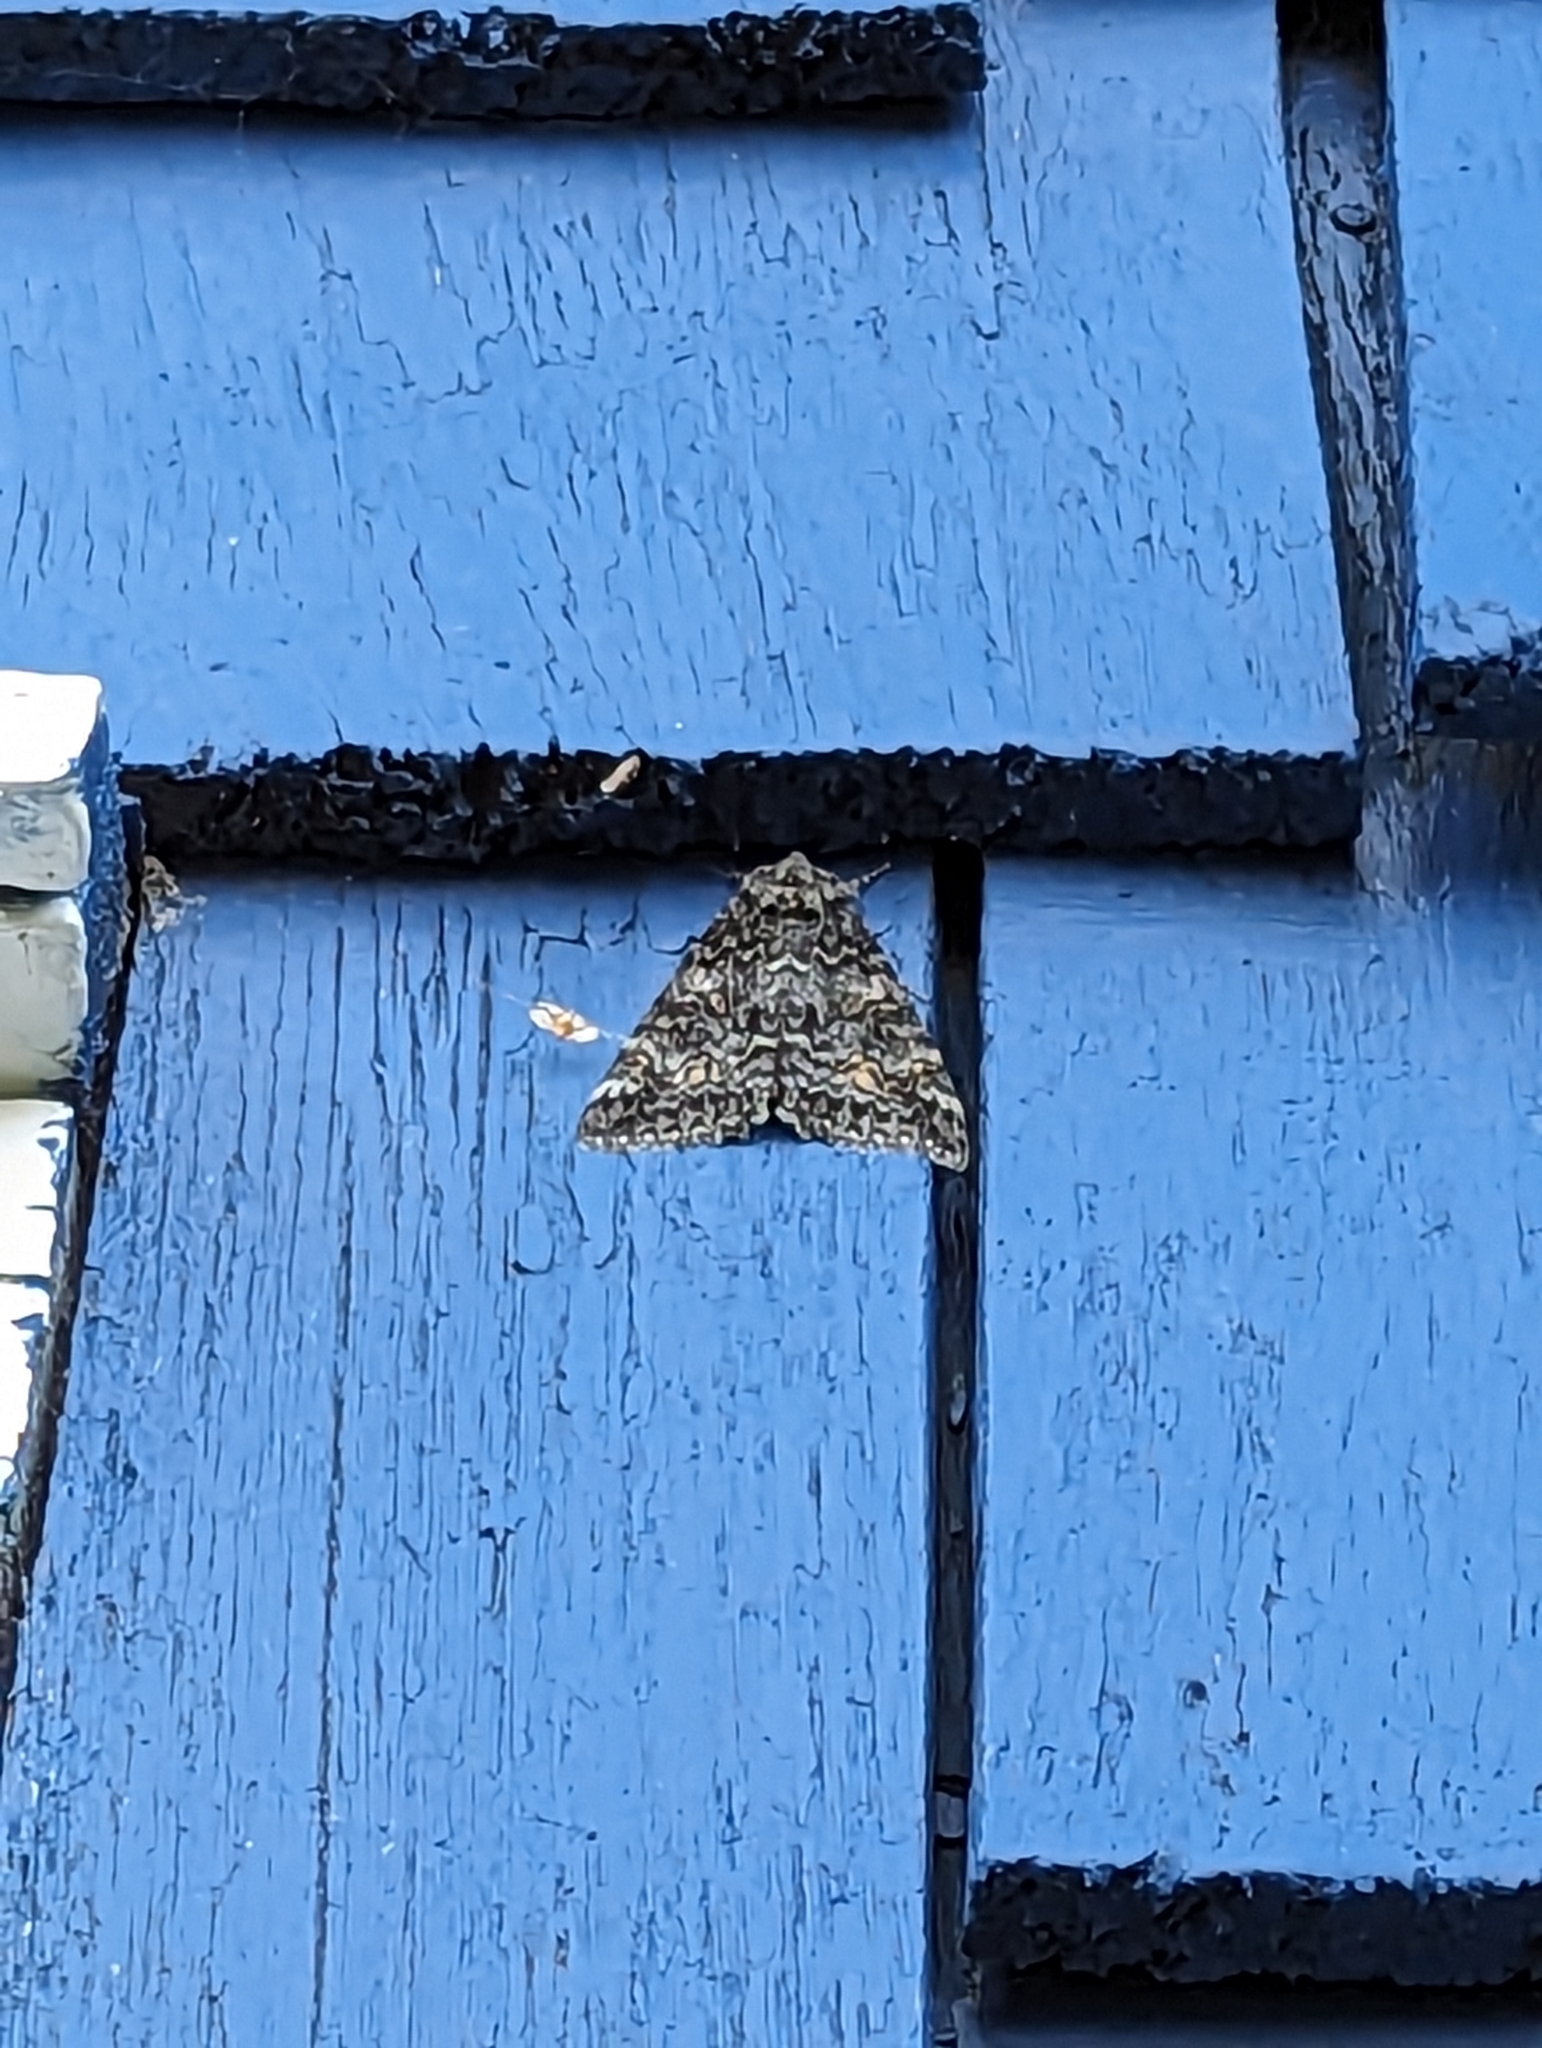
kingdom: Animalia
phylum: Arthropoda
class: Insecta
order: Lepidoptera
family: Erebidae
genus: Catocala
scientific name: Catocala briseis
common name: Briseis underwing
